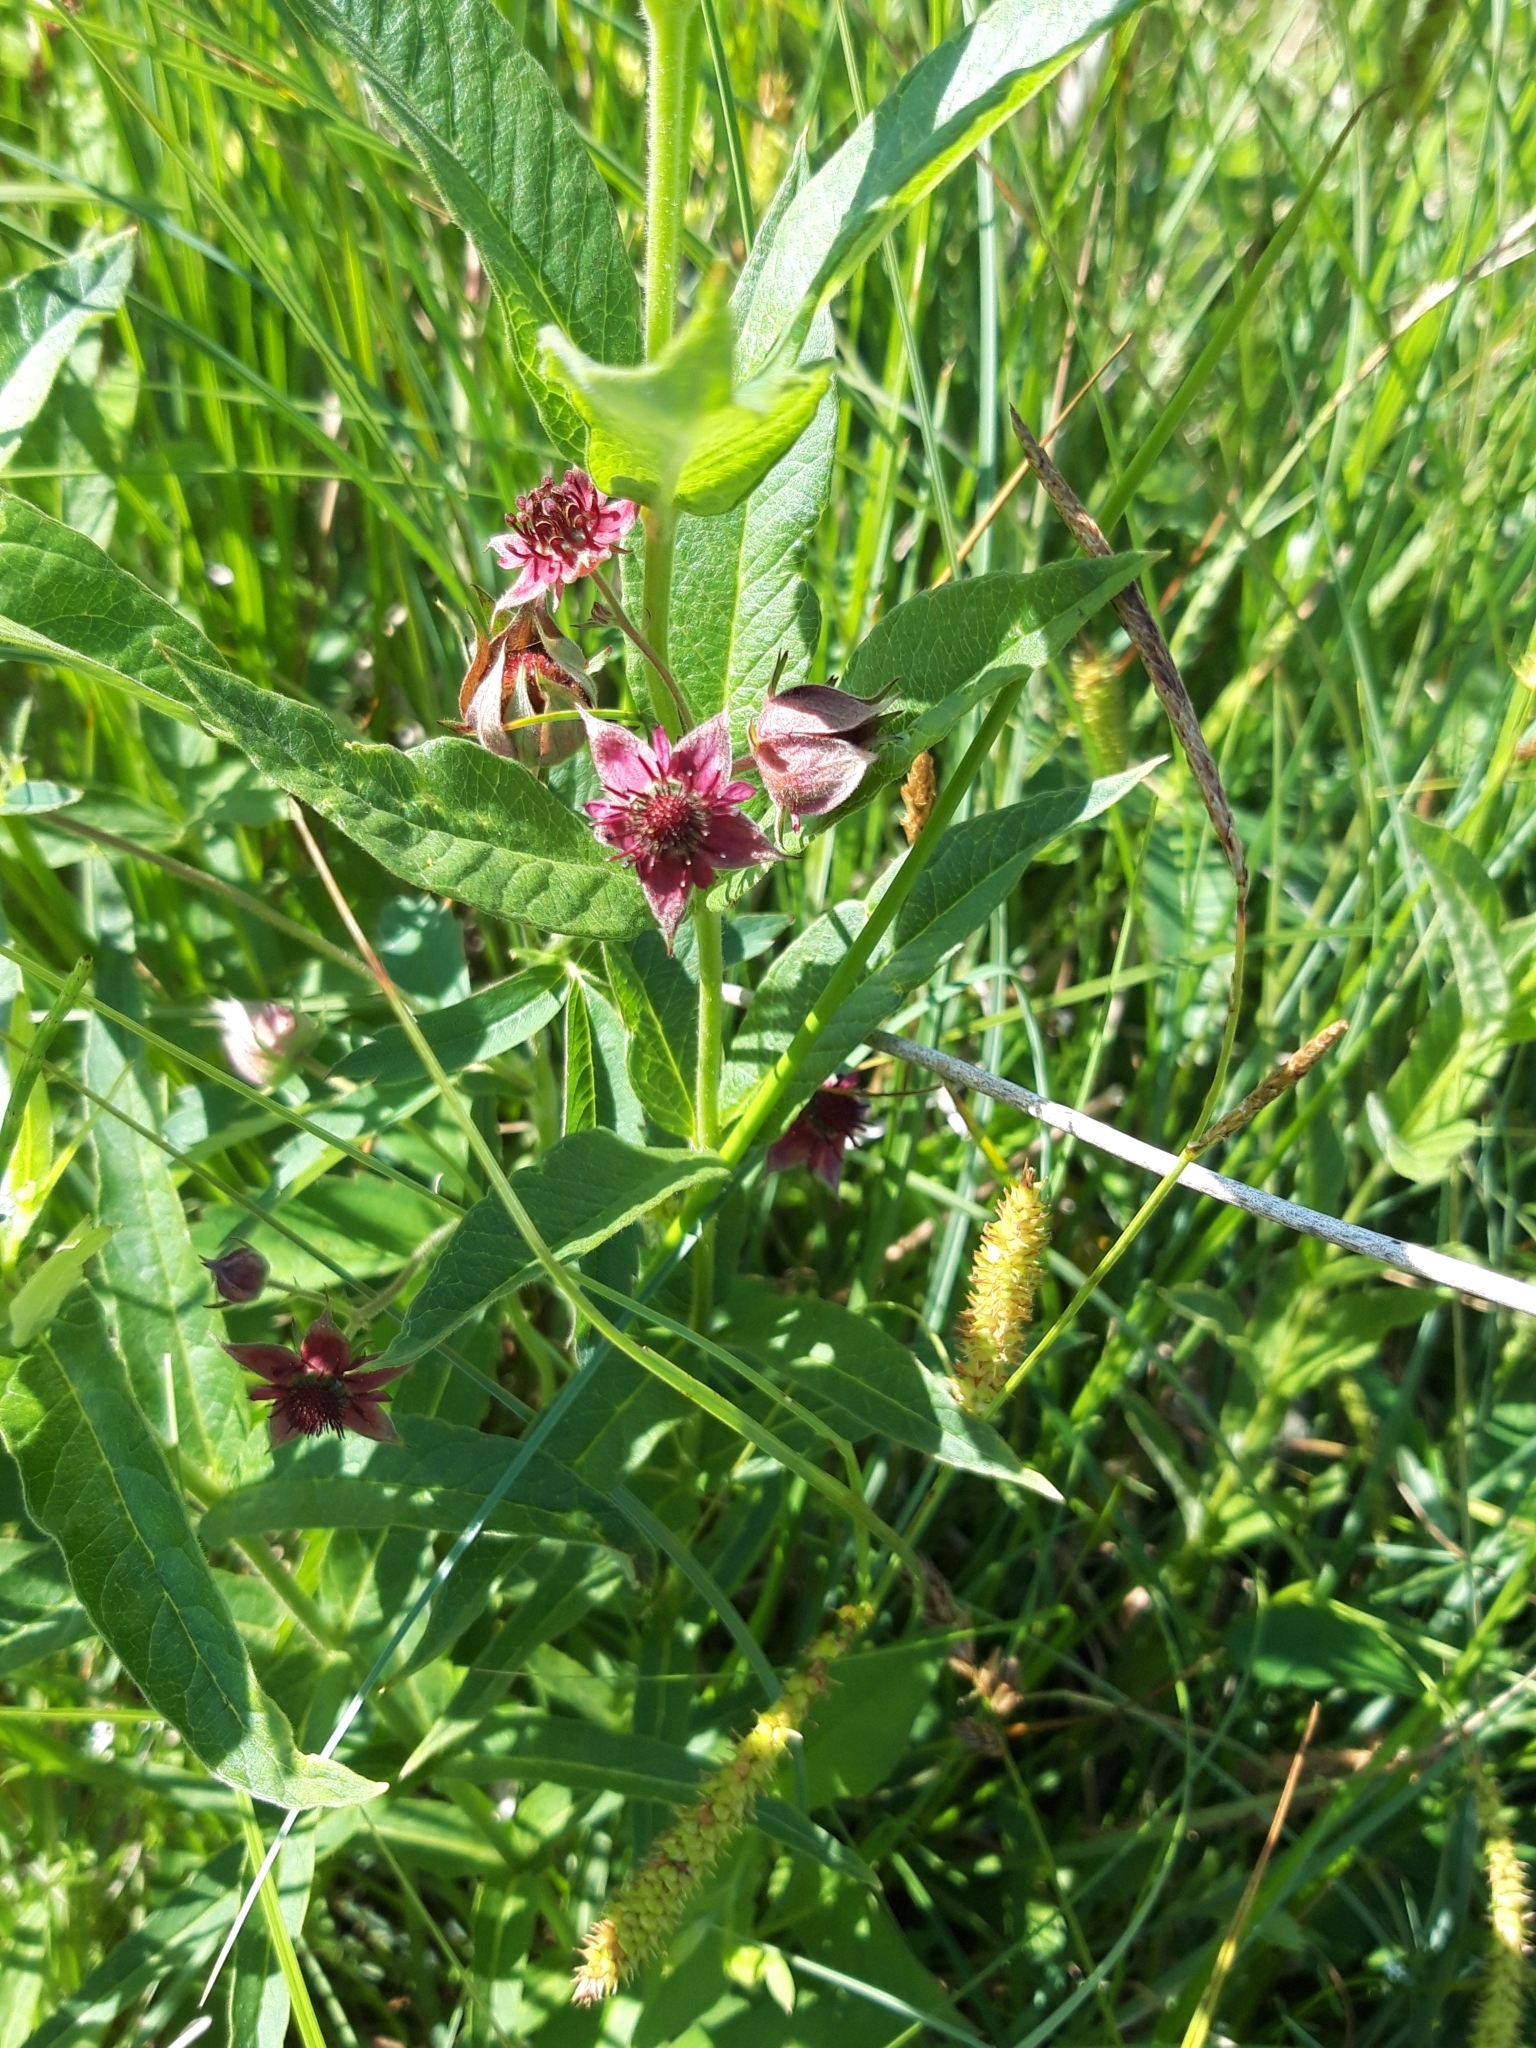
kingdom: Plantae
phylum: Tracheophyta
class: Magnoliopsida
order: Rosales
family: Rosaceae
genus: Comarum
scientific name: Comarum palustre
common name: Marsh cinquefoil
